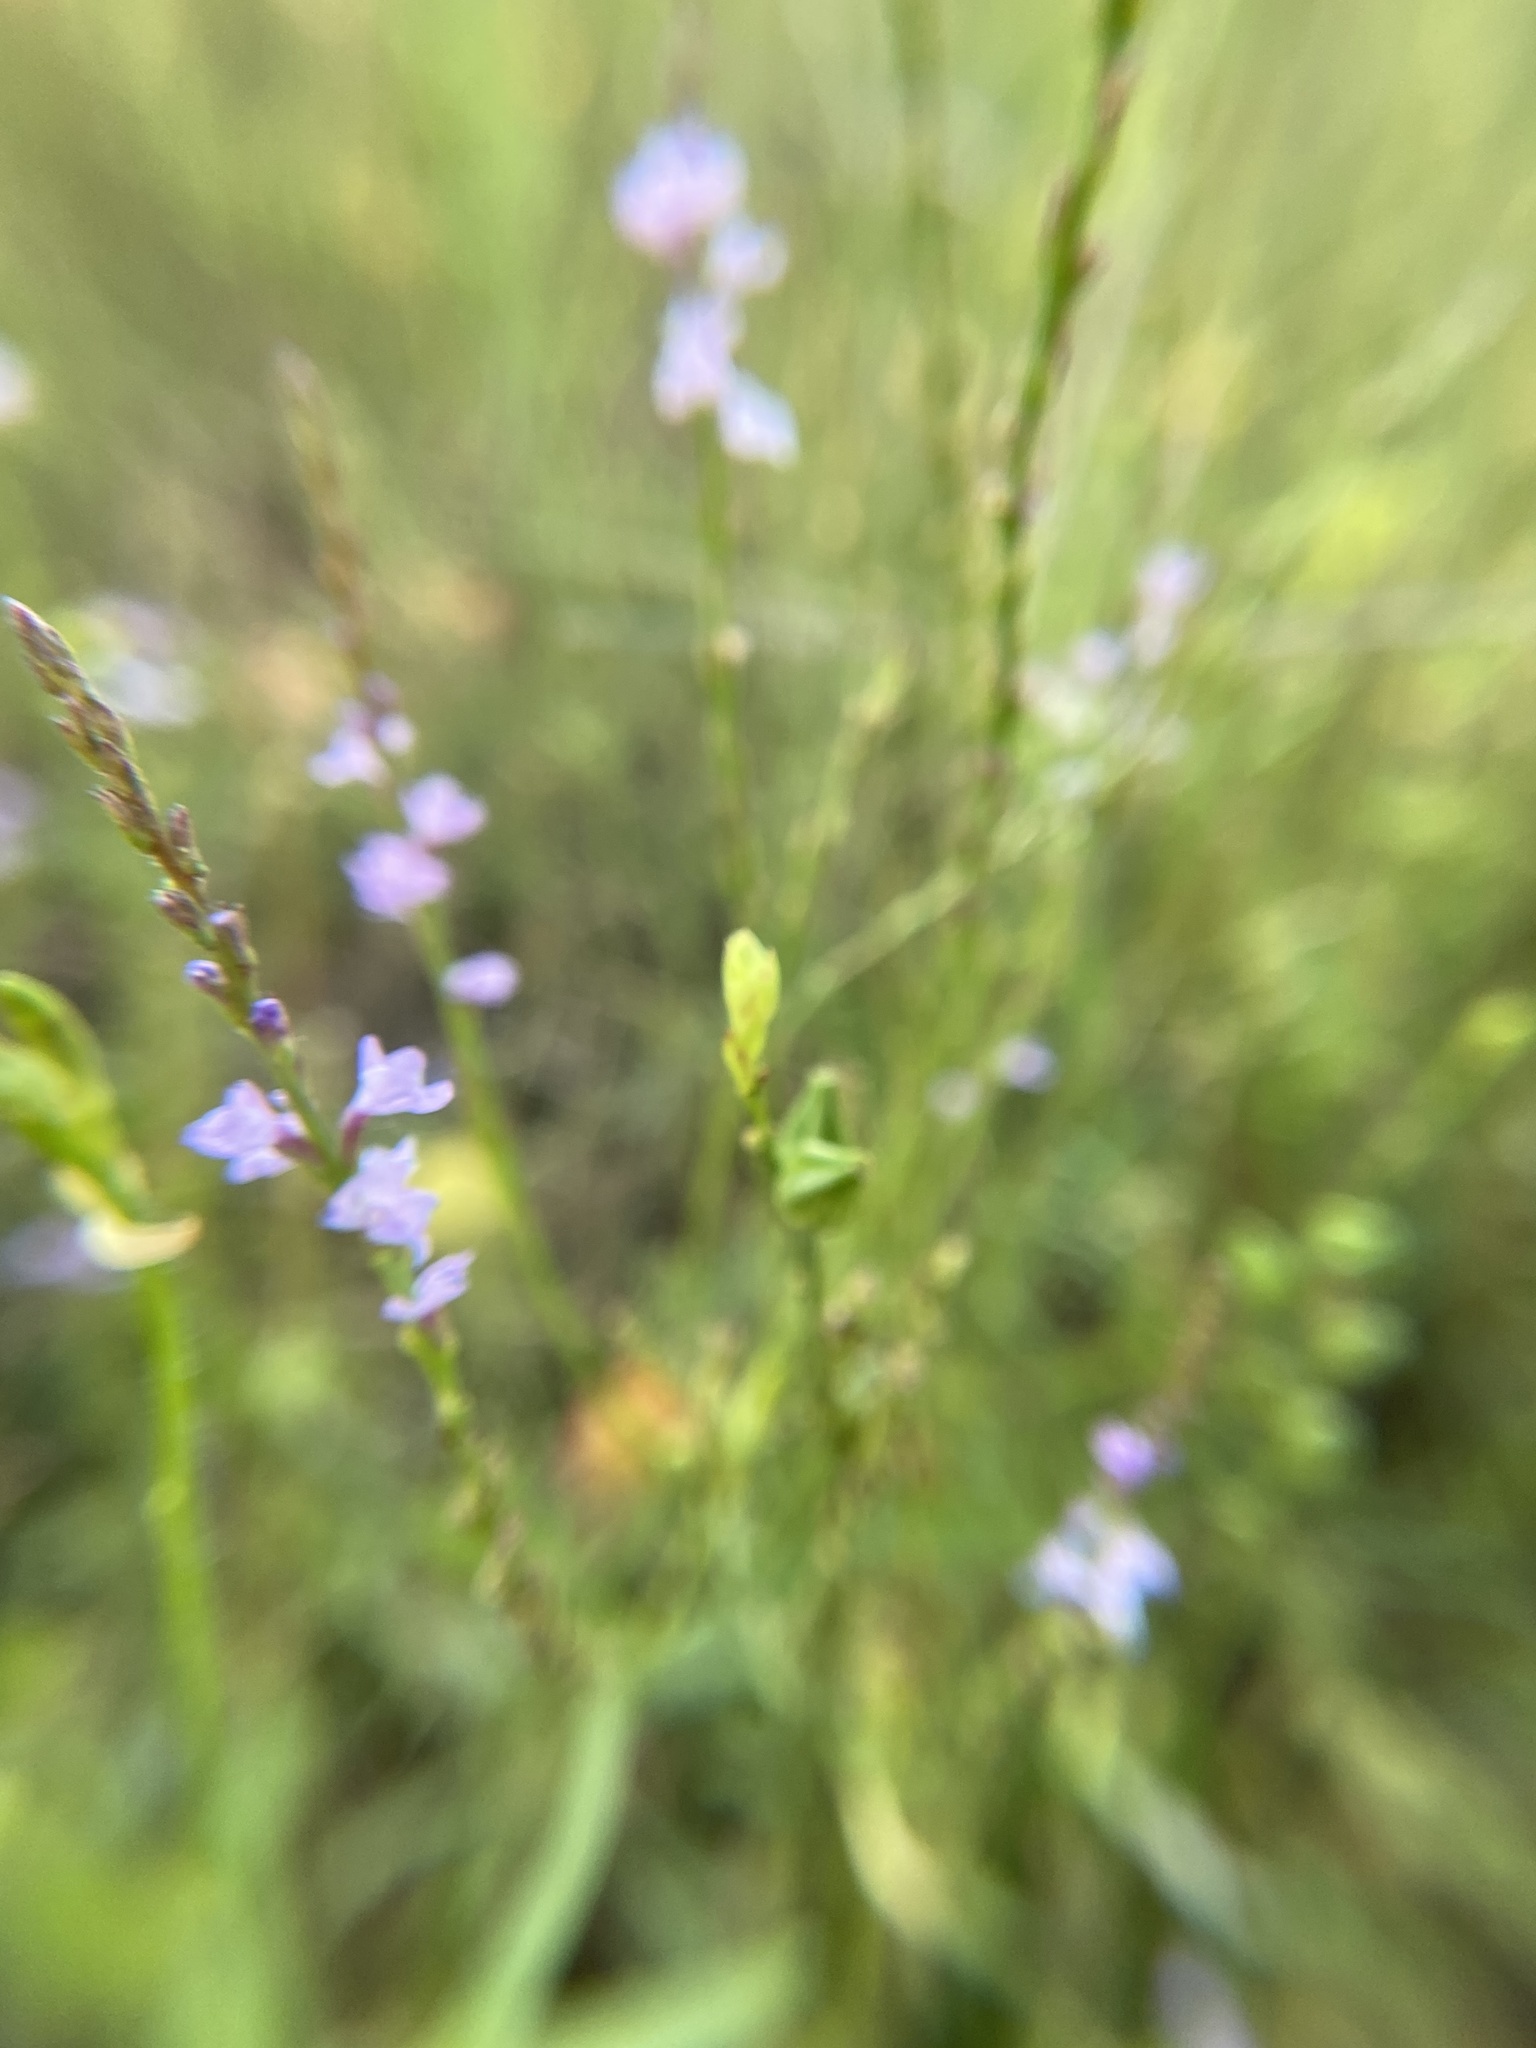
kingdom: Plantae
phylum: Tracheophyta
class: Magnoliopsida
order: Lamiales
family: Verbenaceae
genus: Verbena
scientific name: Verbena halei
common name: Texas vervain
